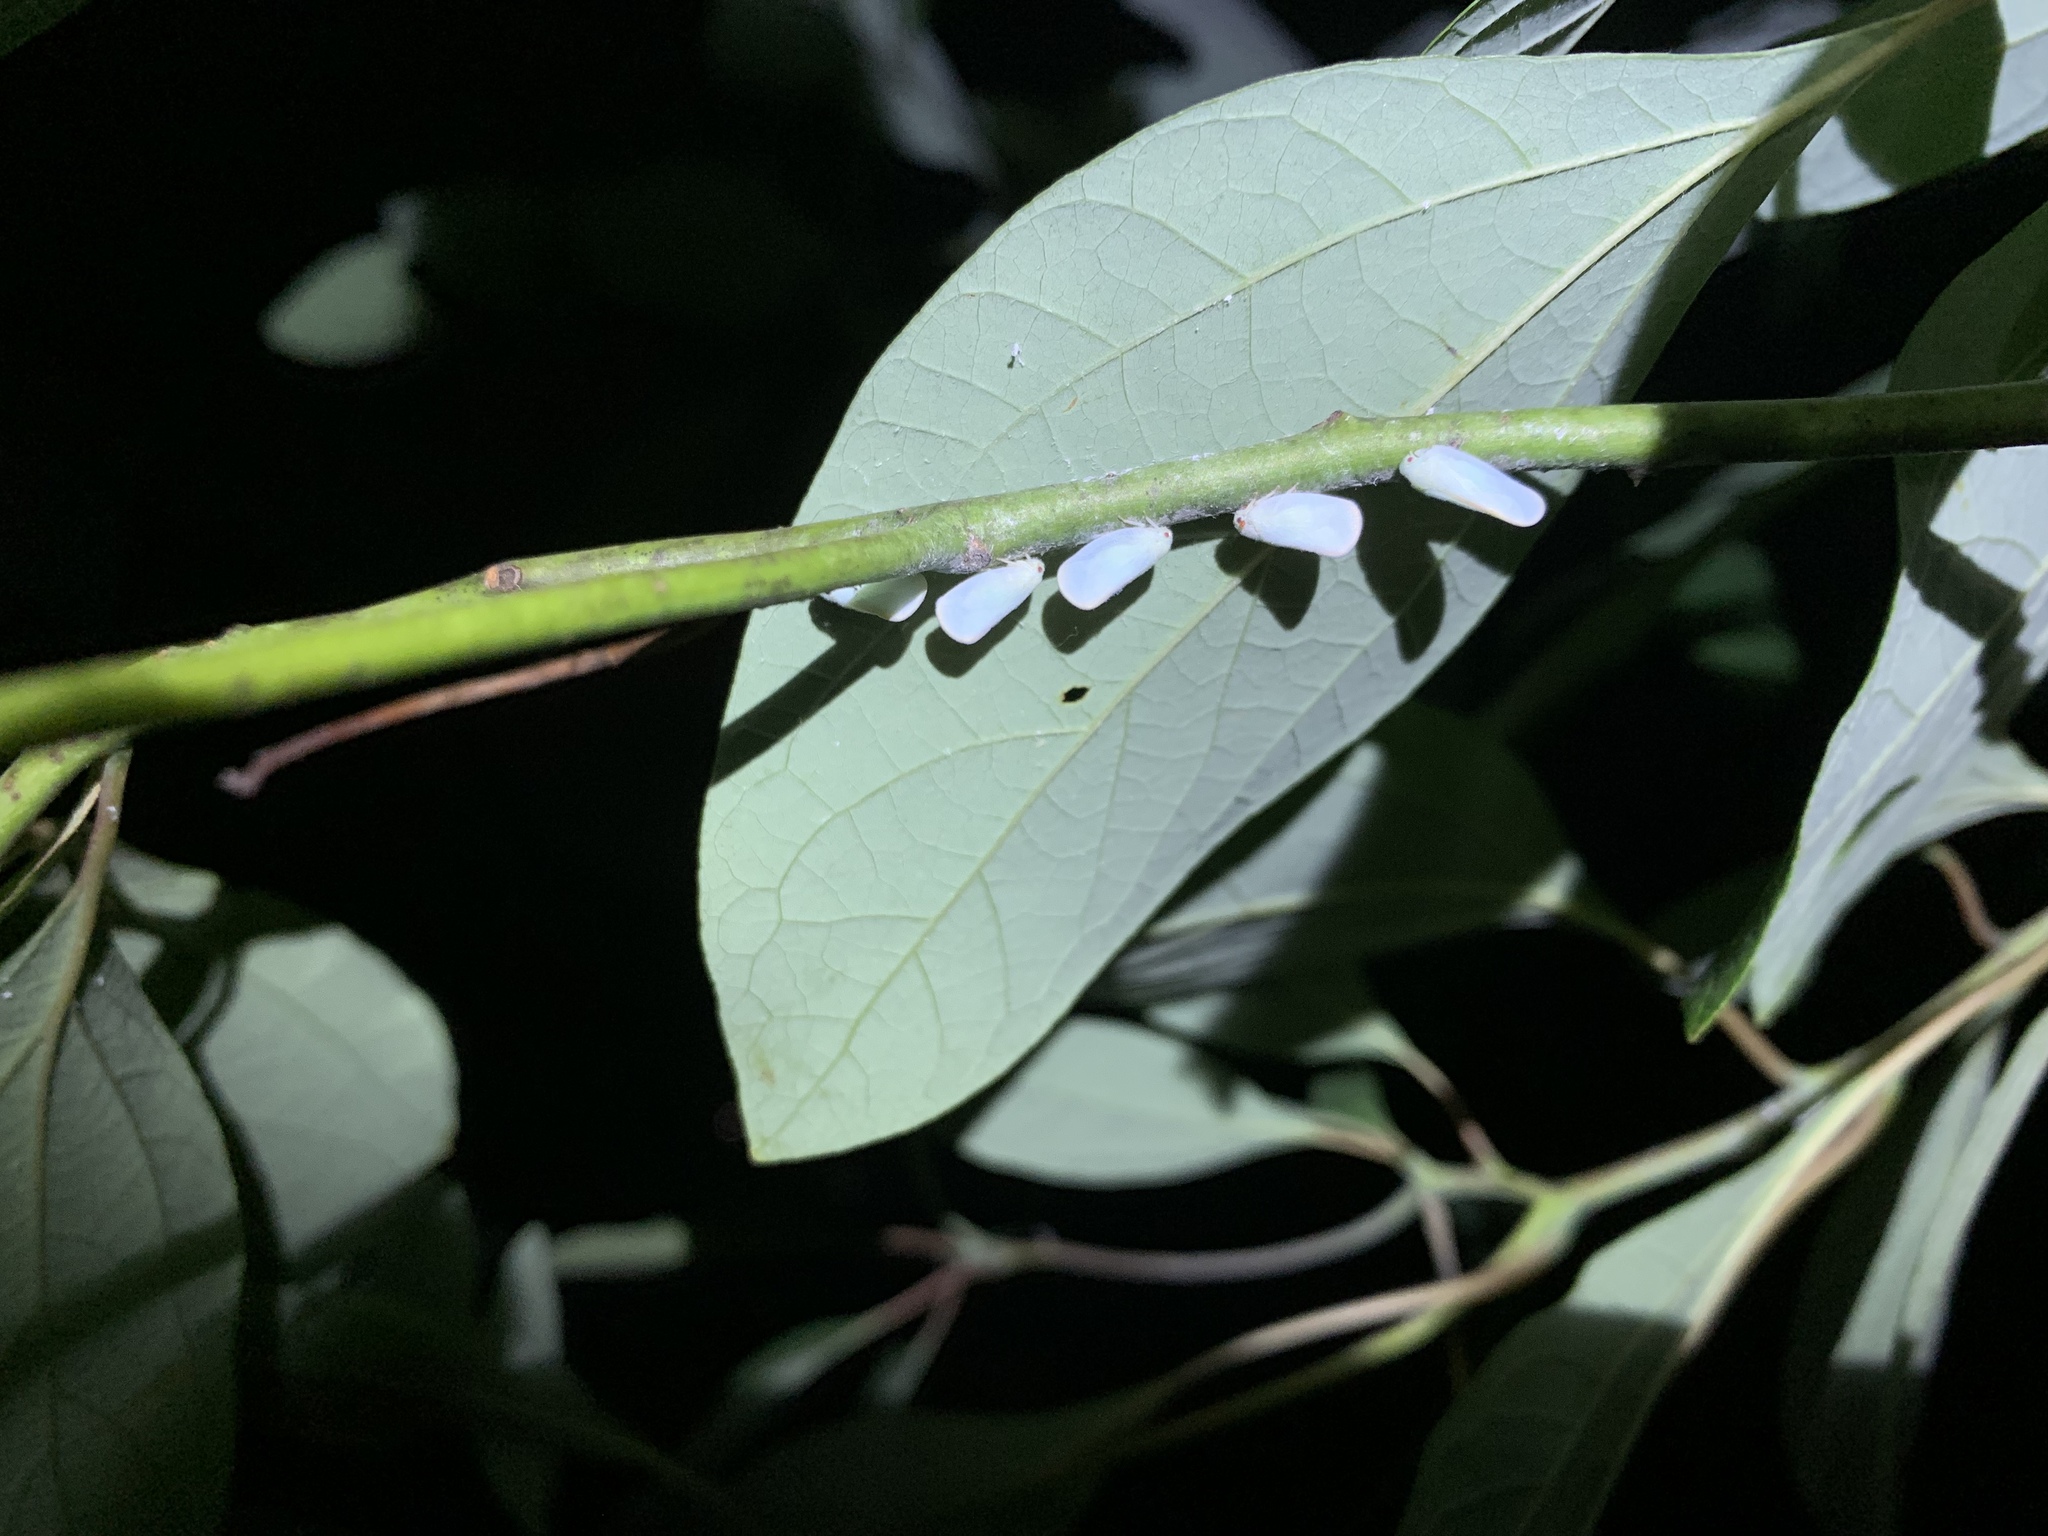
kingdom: Animalia
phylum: Arthropoda
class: Insecta
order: Hemiptera
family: Flatidae
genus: Ormenoides
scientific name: Ormenoides venusta
